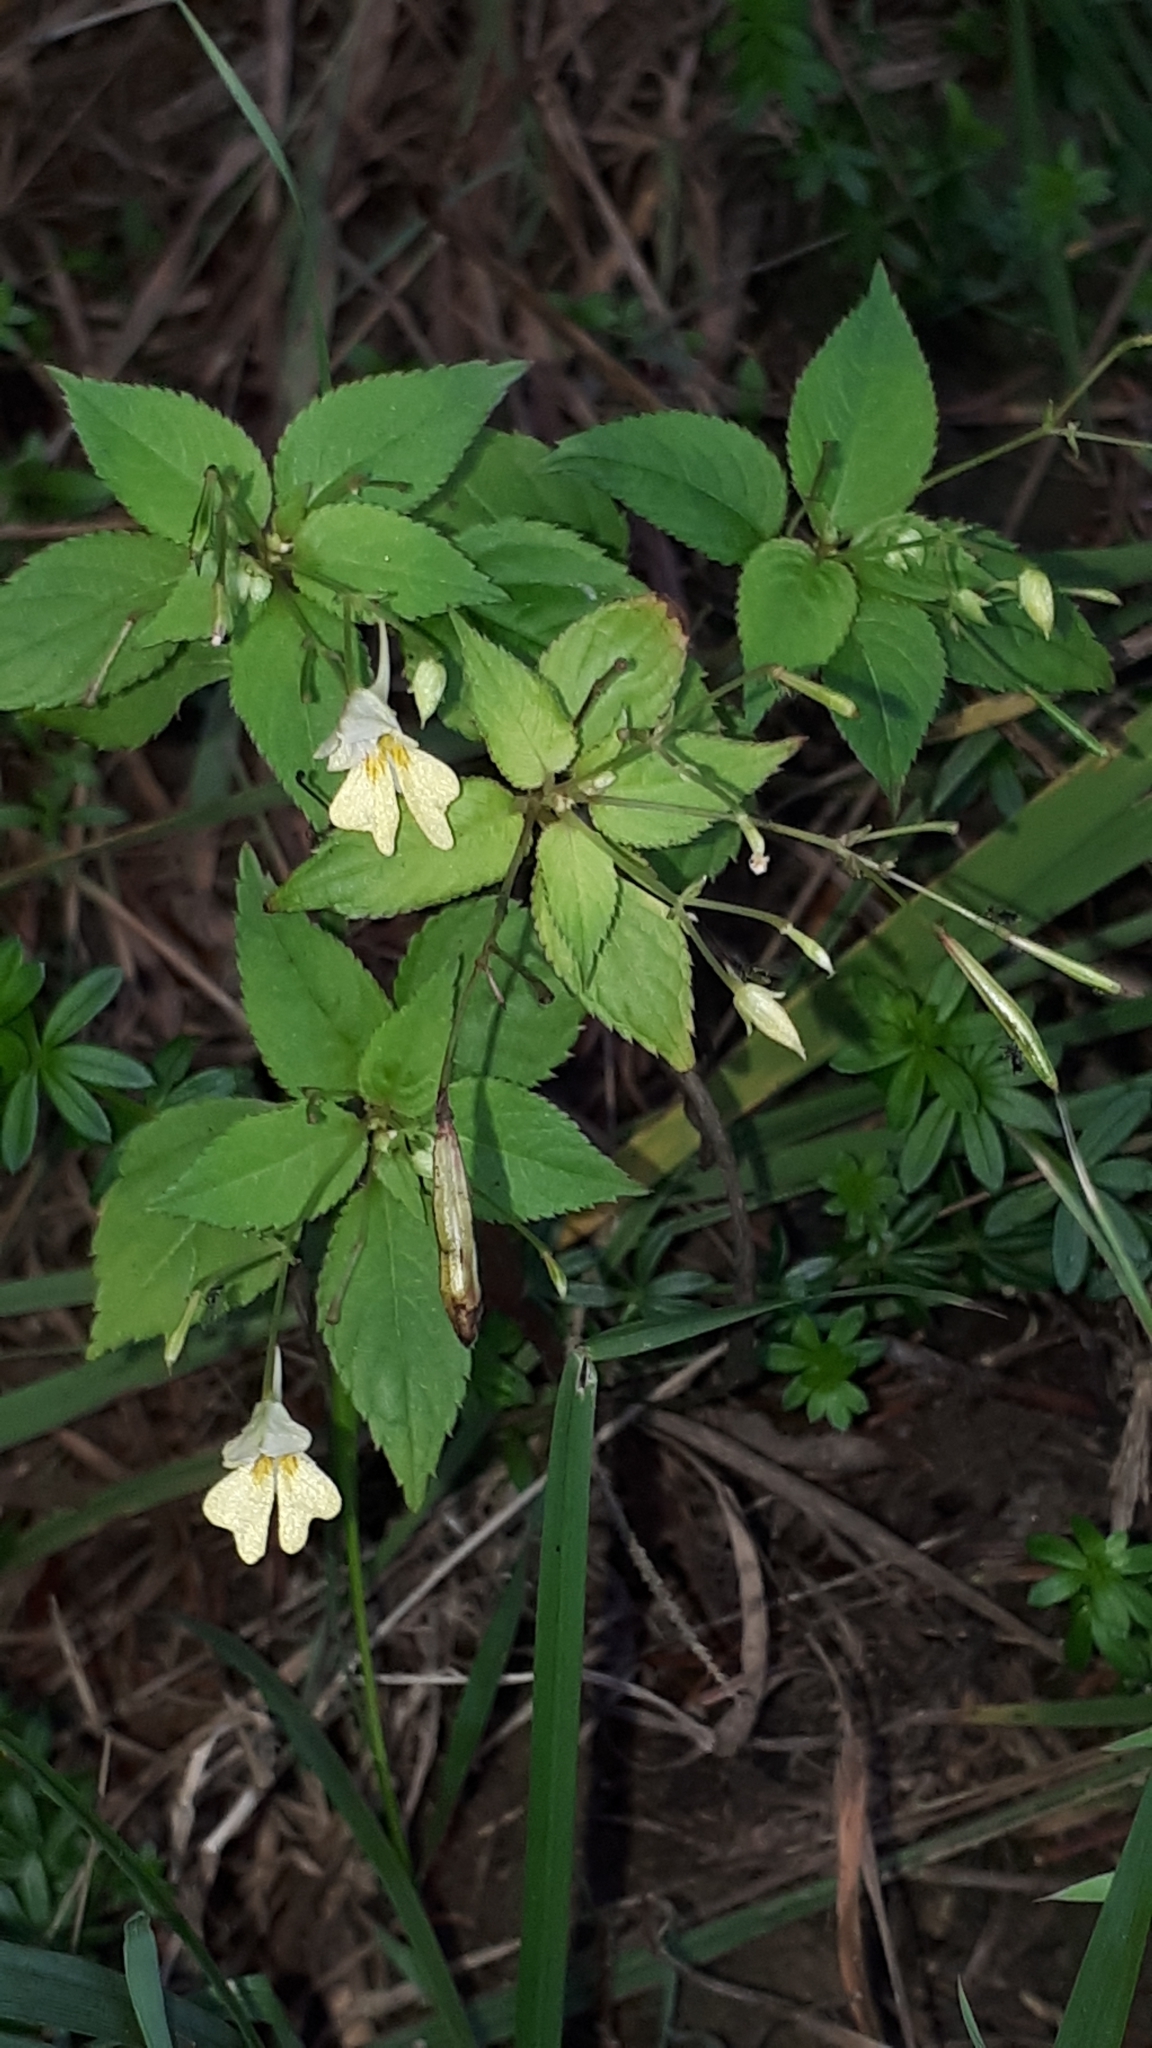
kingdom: Plantae
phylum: Tracheophyta
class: Magnoliopsida
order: Ericales
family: Balsaminaceae
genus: Impatiens
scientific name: Impatiens parviflora
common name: Small balsam
